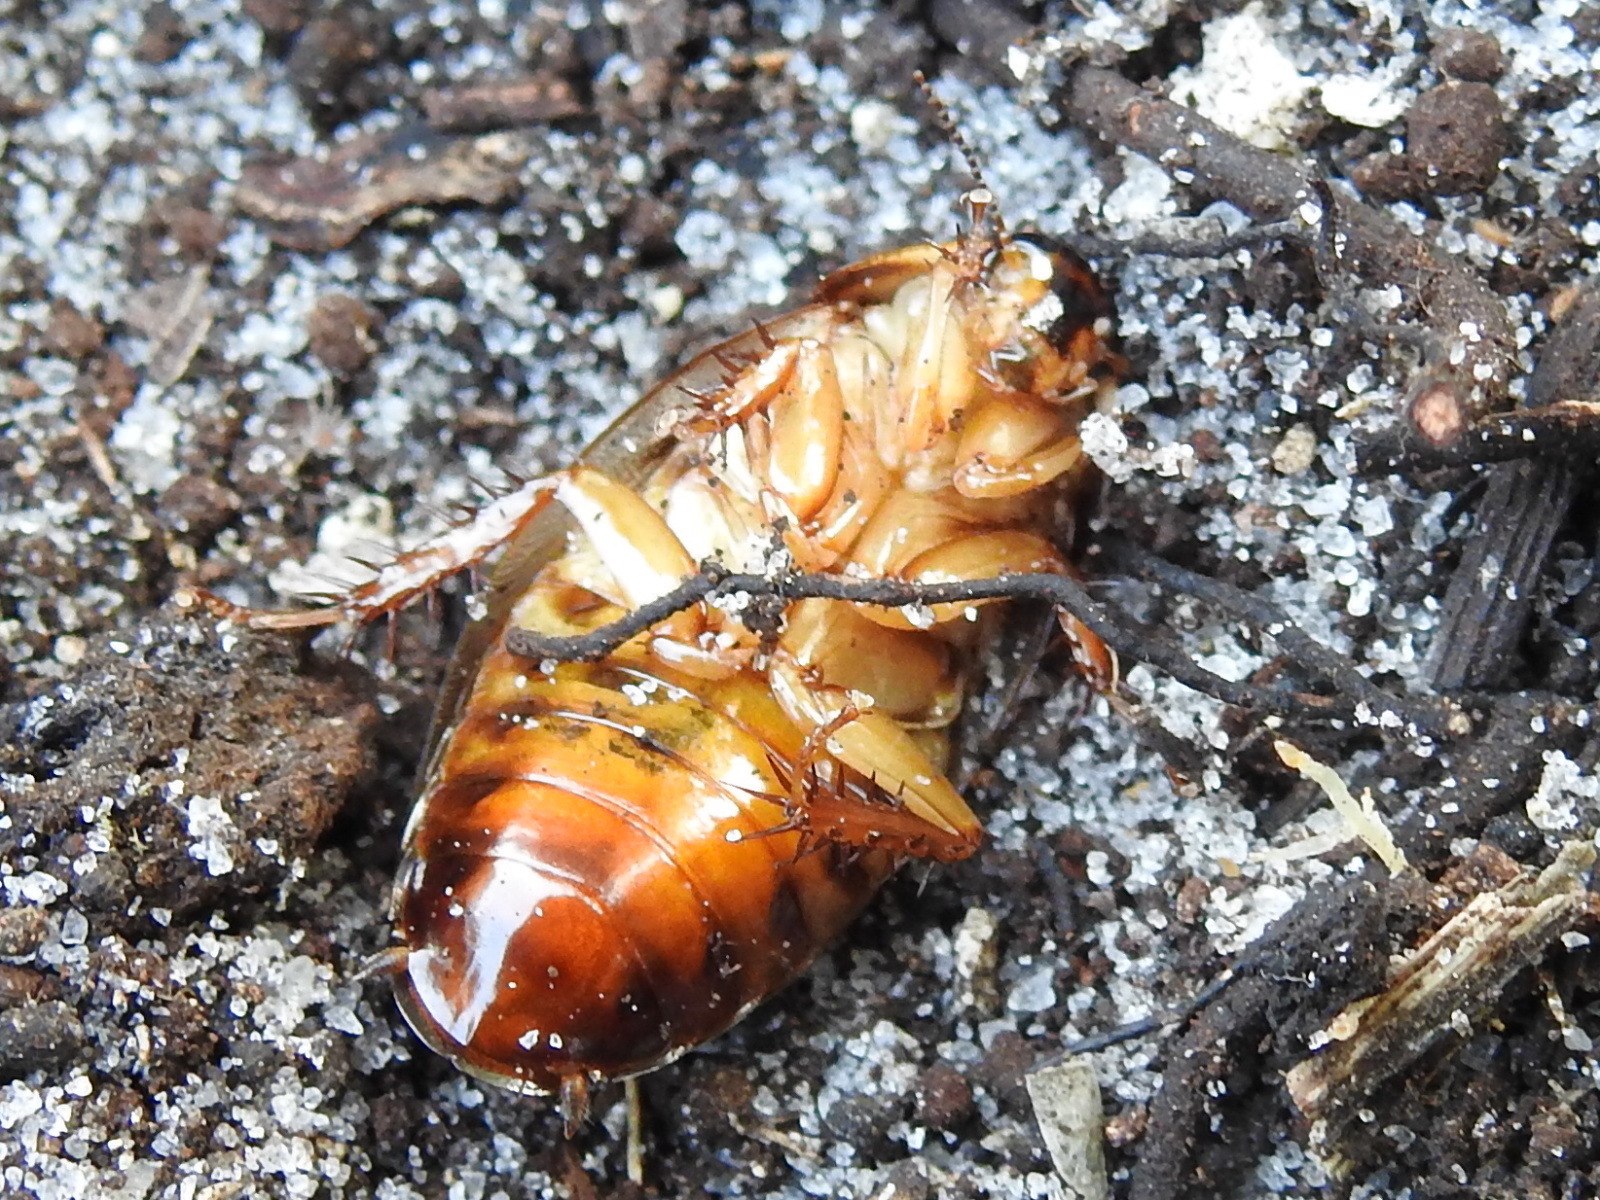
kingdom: Animalia
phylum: Arthropoda
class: Insecta
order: Blattodea
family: Blaberidae
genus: Pycnoscelus
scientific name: Pycnoscelus surinamensis
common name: Surinam cockroach
